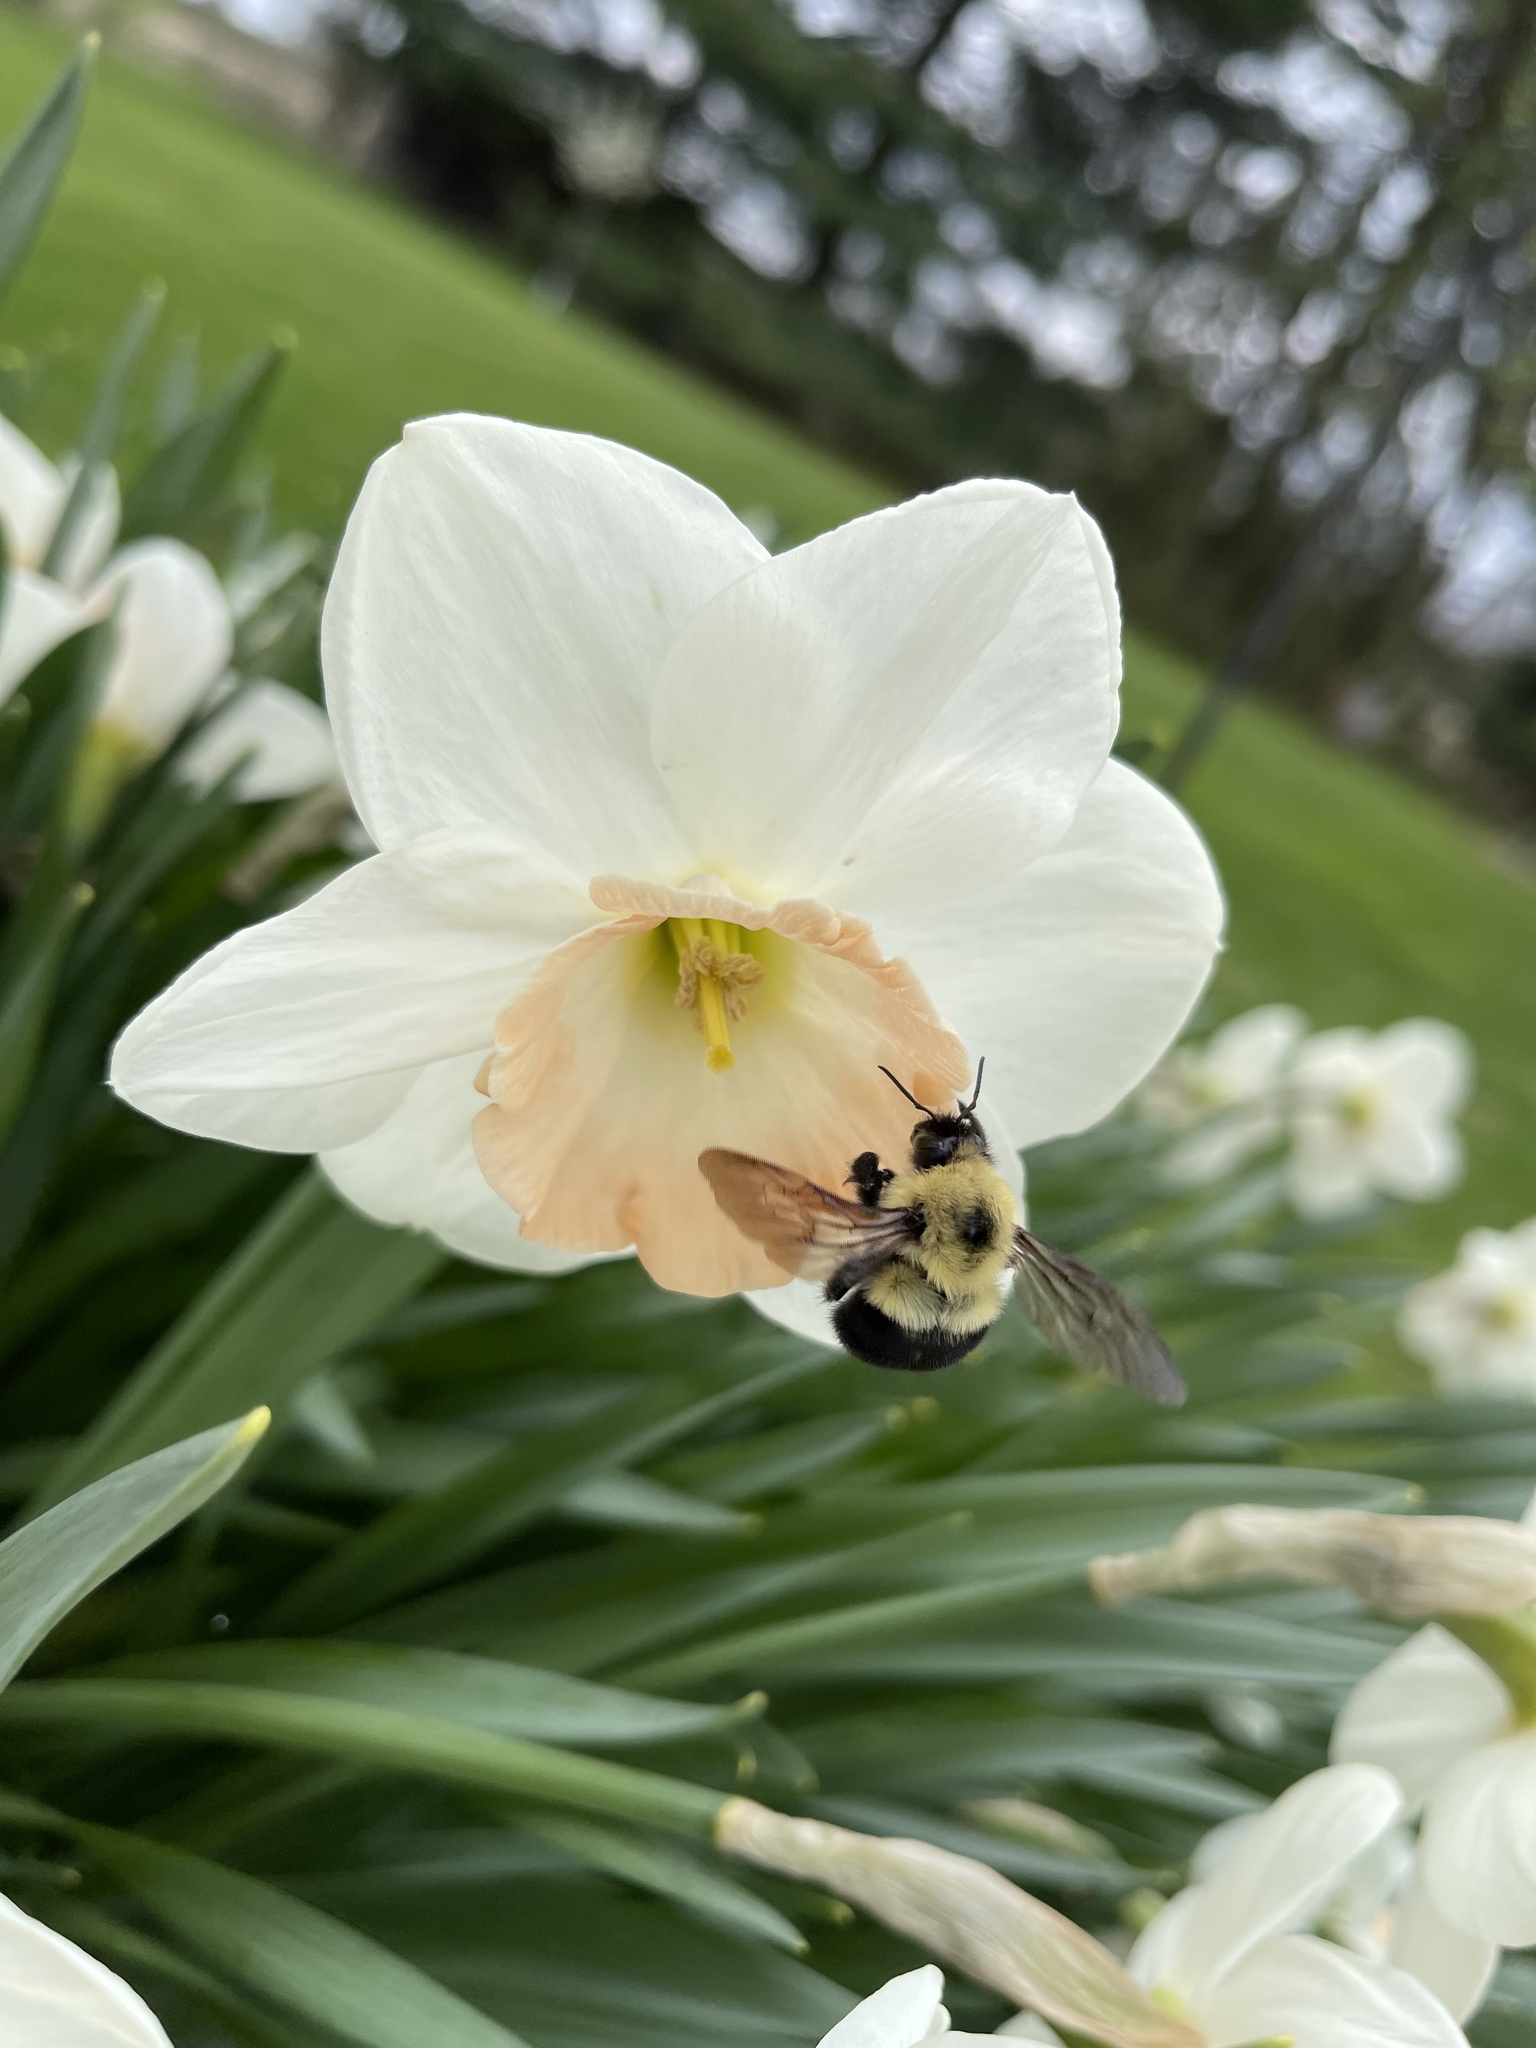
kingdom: Animalia
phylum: Arthropoda
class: Insecta
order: Hymenoptera
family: Apidae
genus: Bombus
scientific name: Bombus bimaculatus
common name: Two-spotted bumble bee
